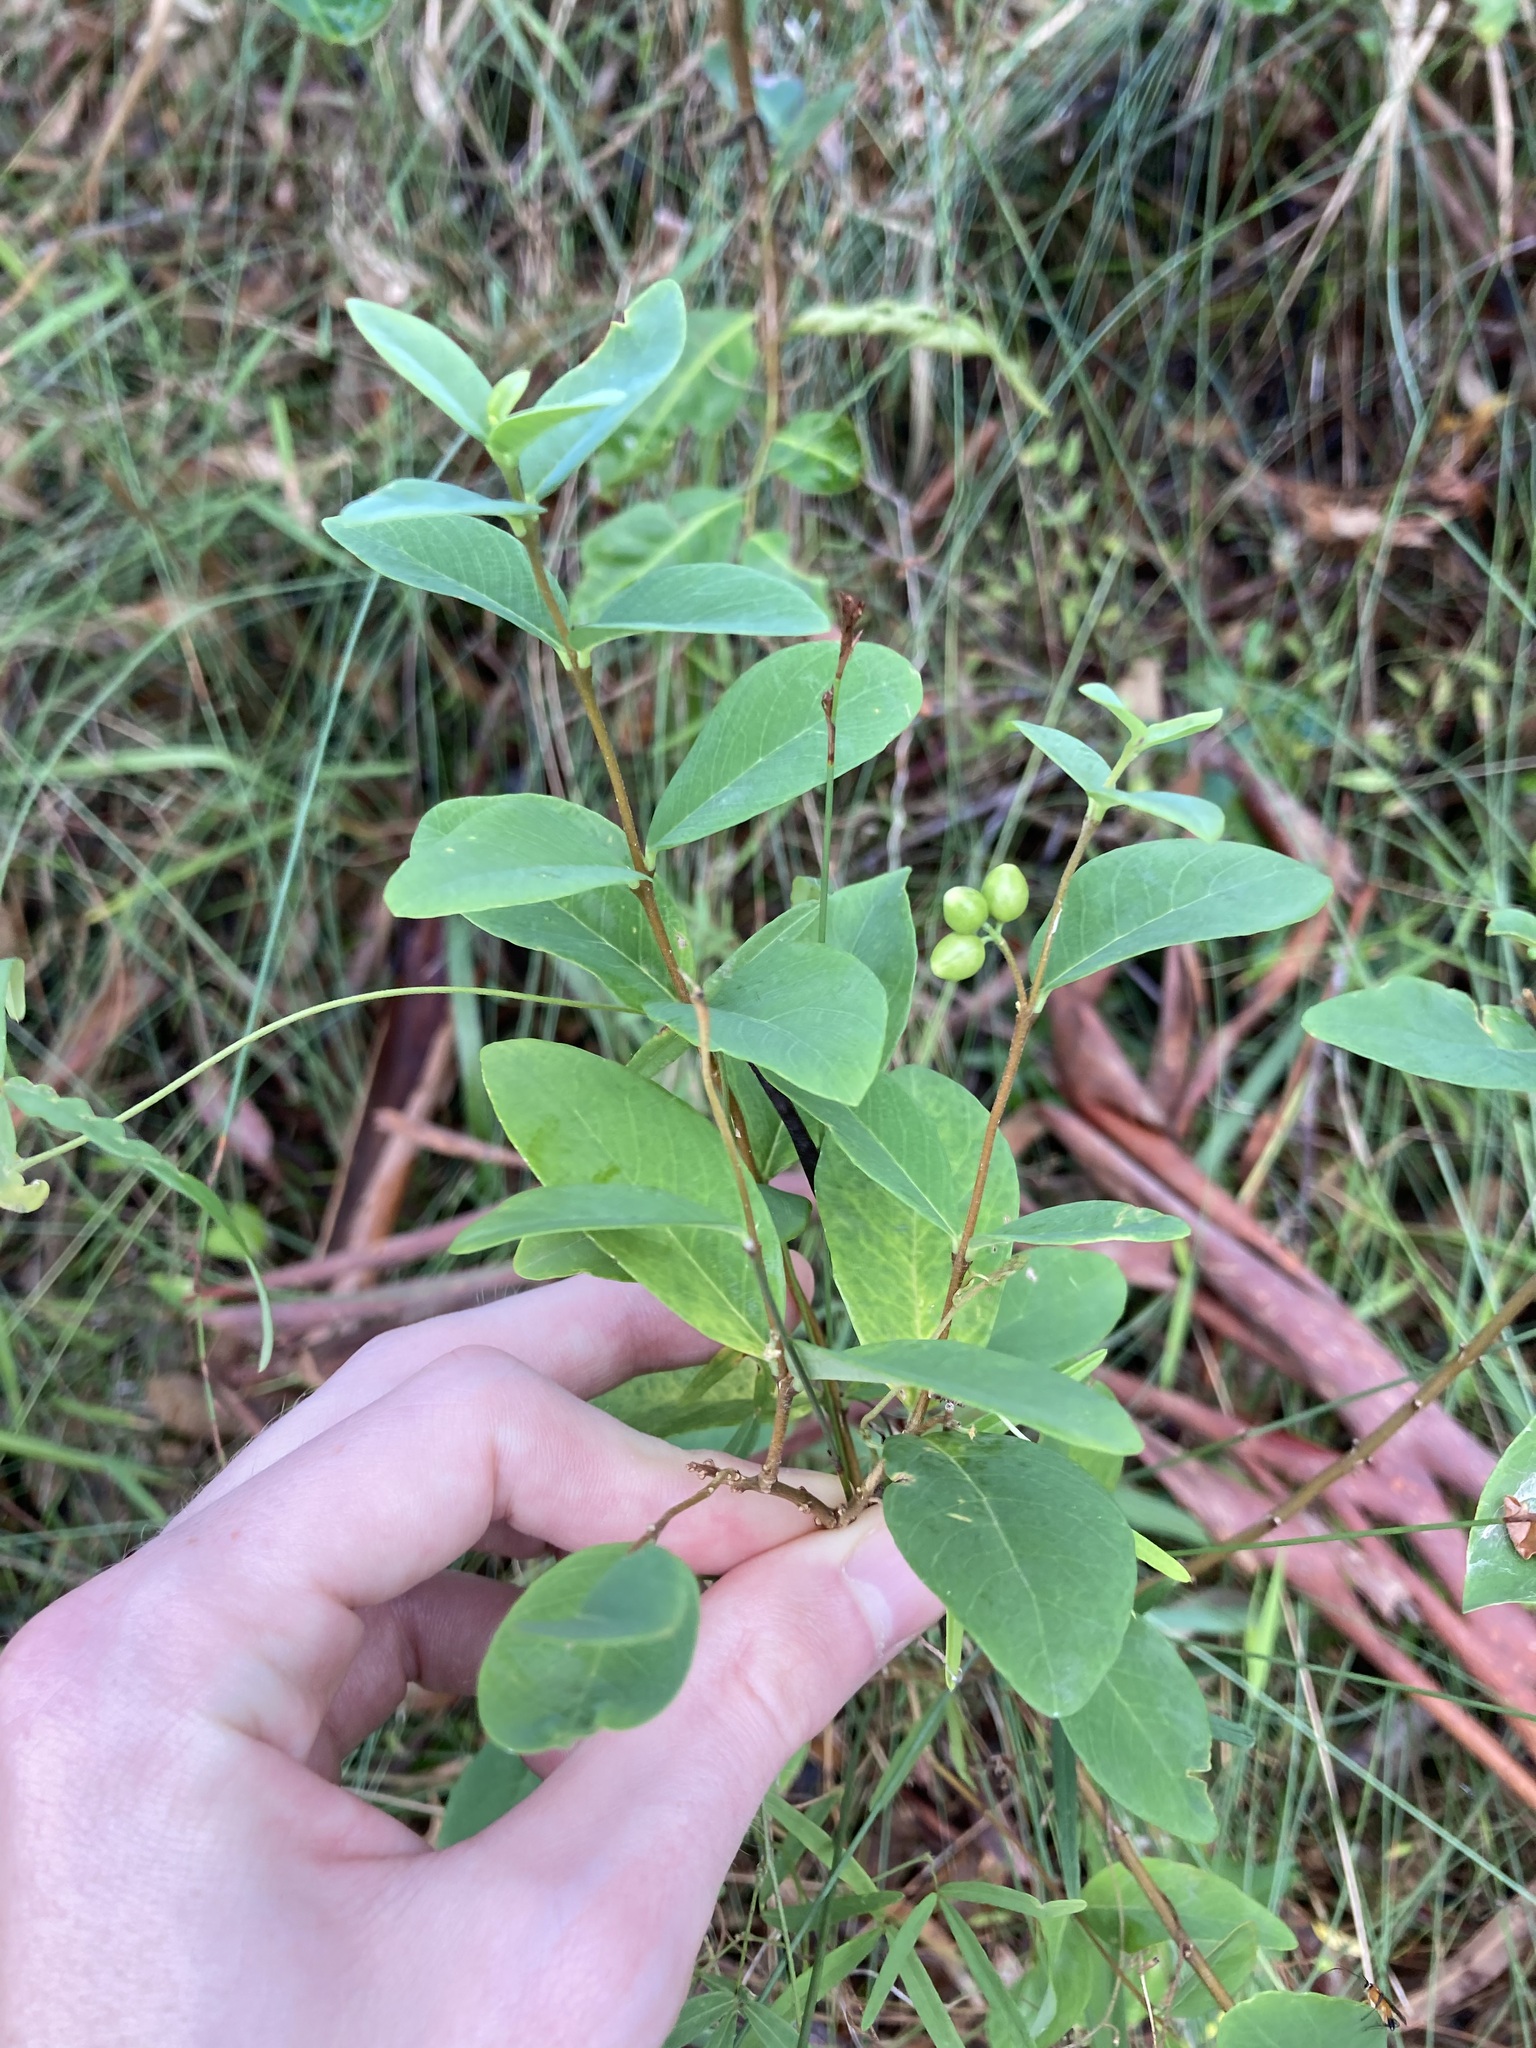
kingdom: Plantae
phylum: Tracheophyta
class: Magnoliopsida
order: Malvales
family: Thymelaeaceae
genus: Wikstroemia
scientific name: Wikstroemia indica
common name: Tiebush
